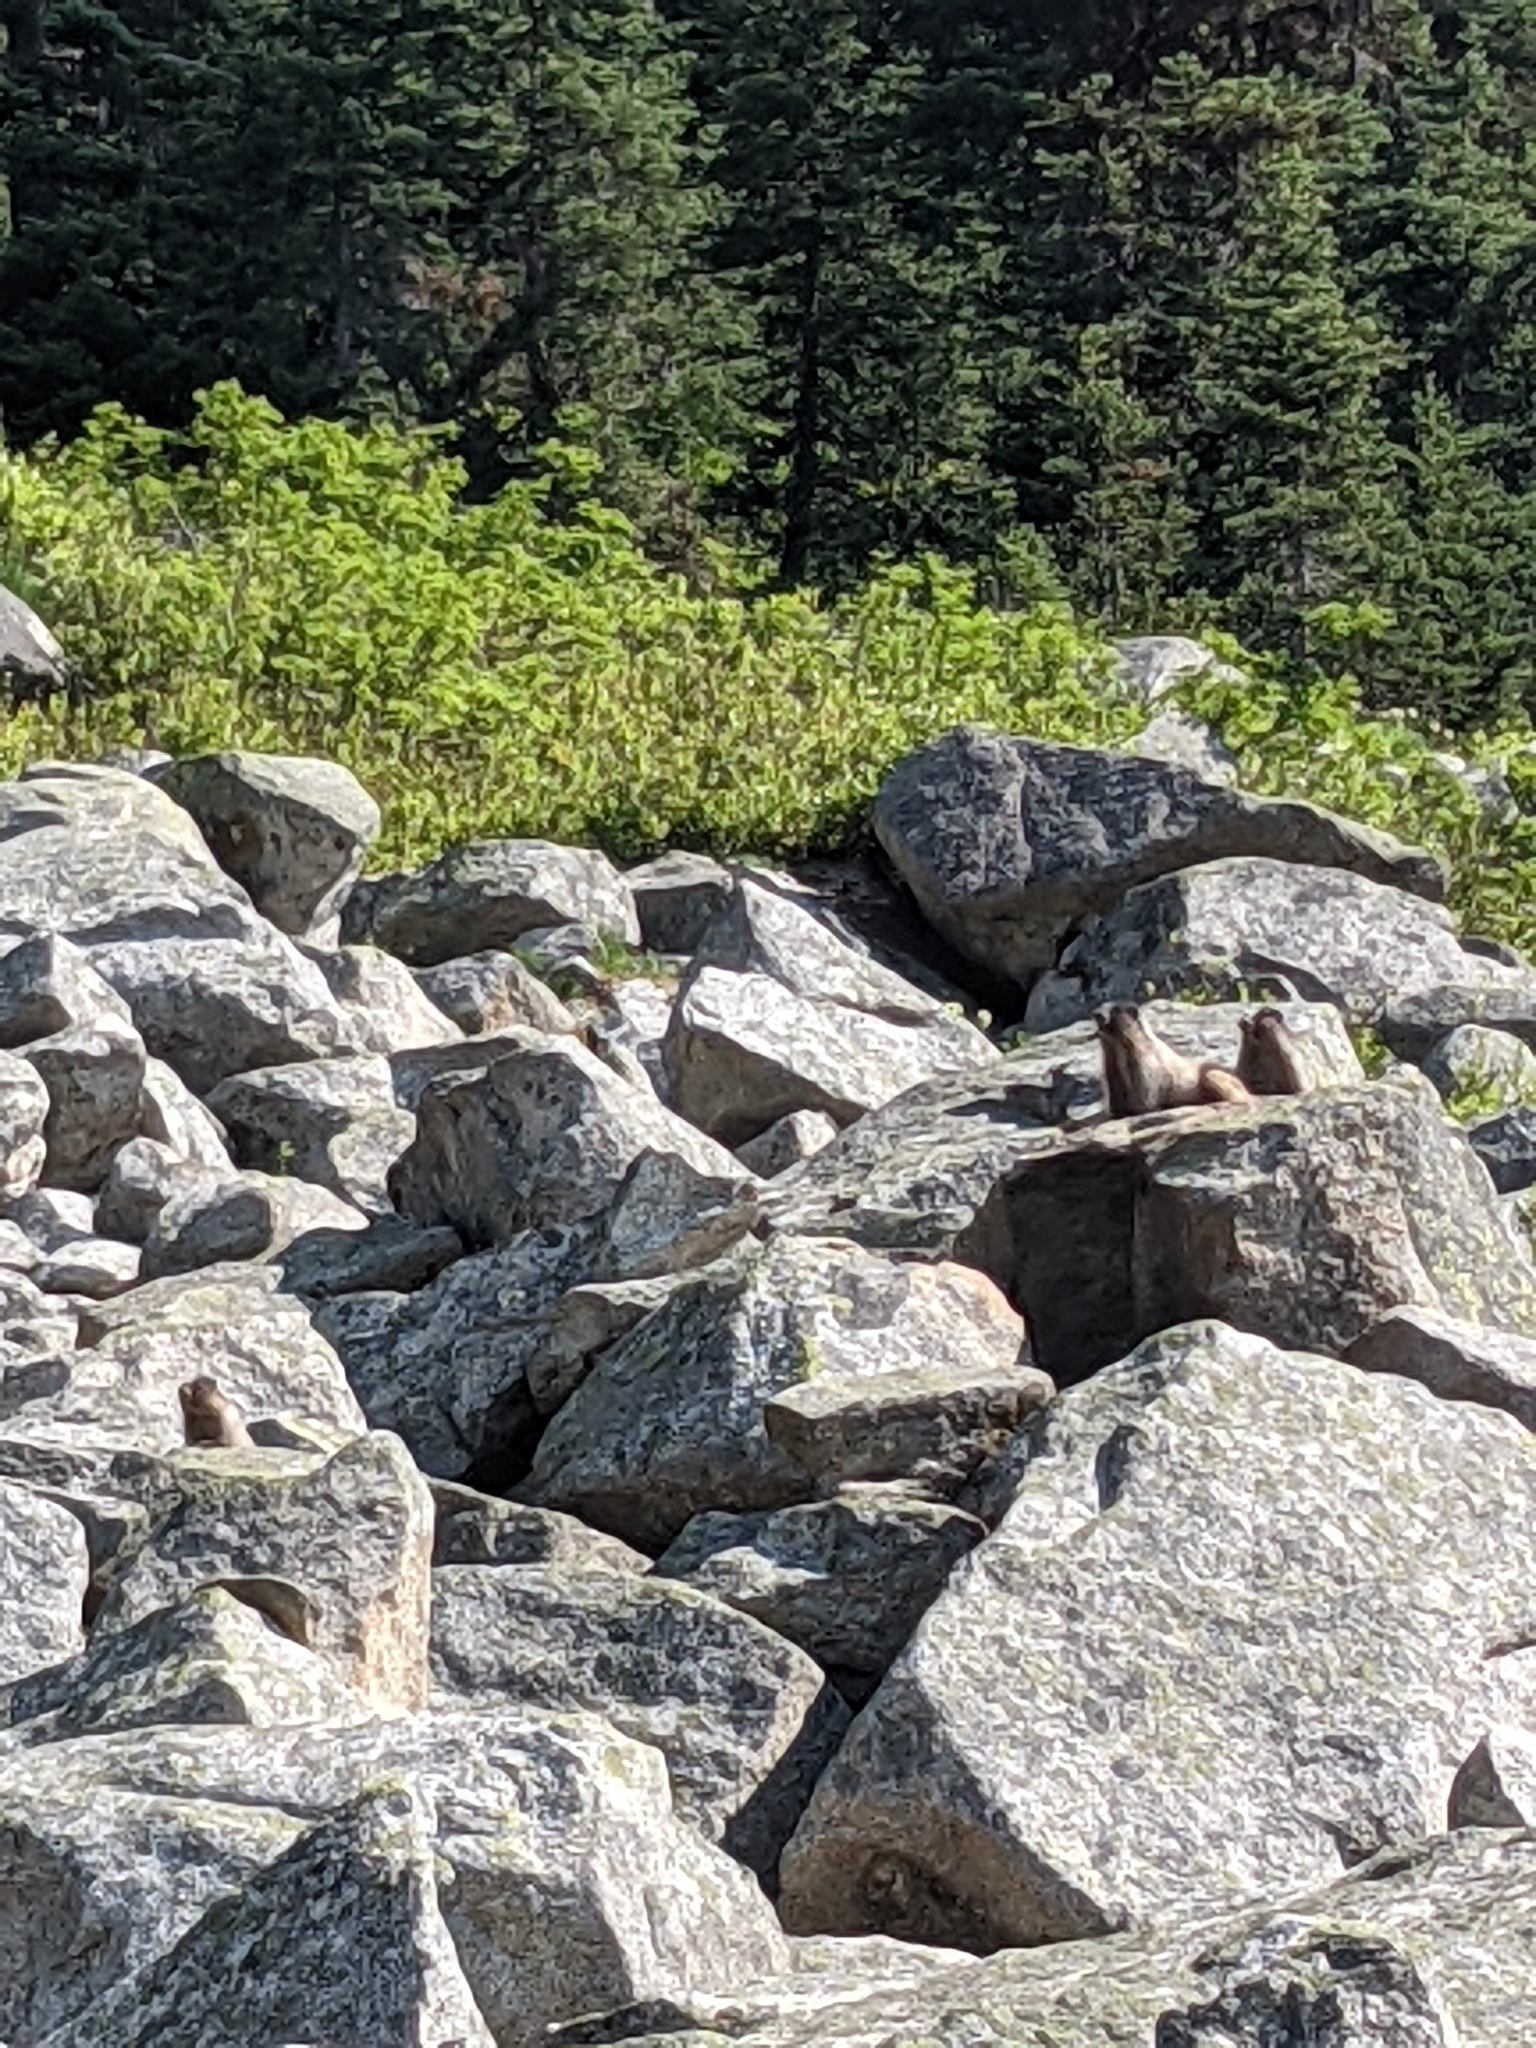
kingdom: Animalia
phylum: Chordata
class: Mammalia
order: Rodentia
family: Sciuridae
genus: Marmota
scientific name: Marmota caligata
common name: Hoary marmot
